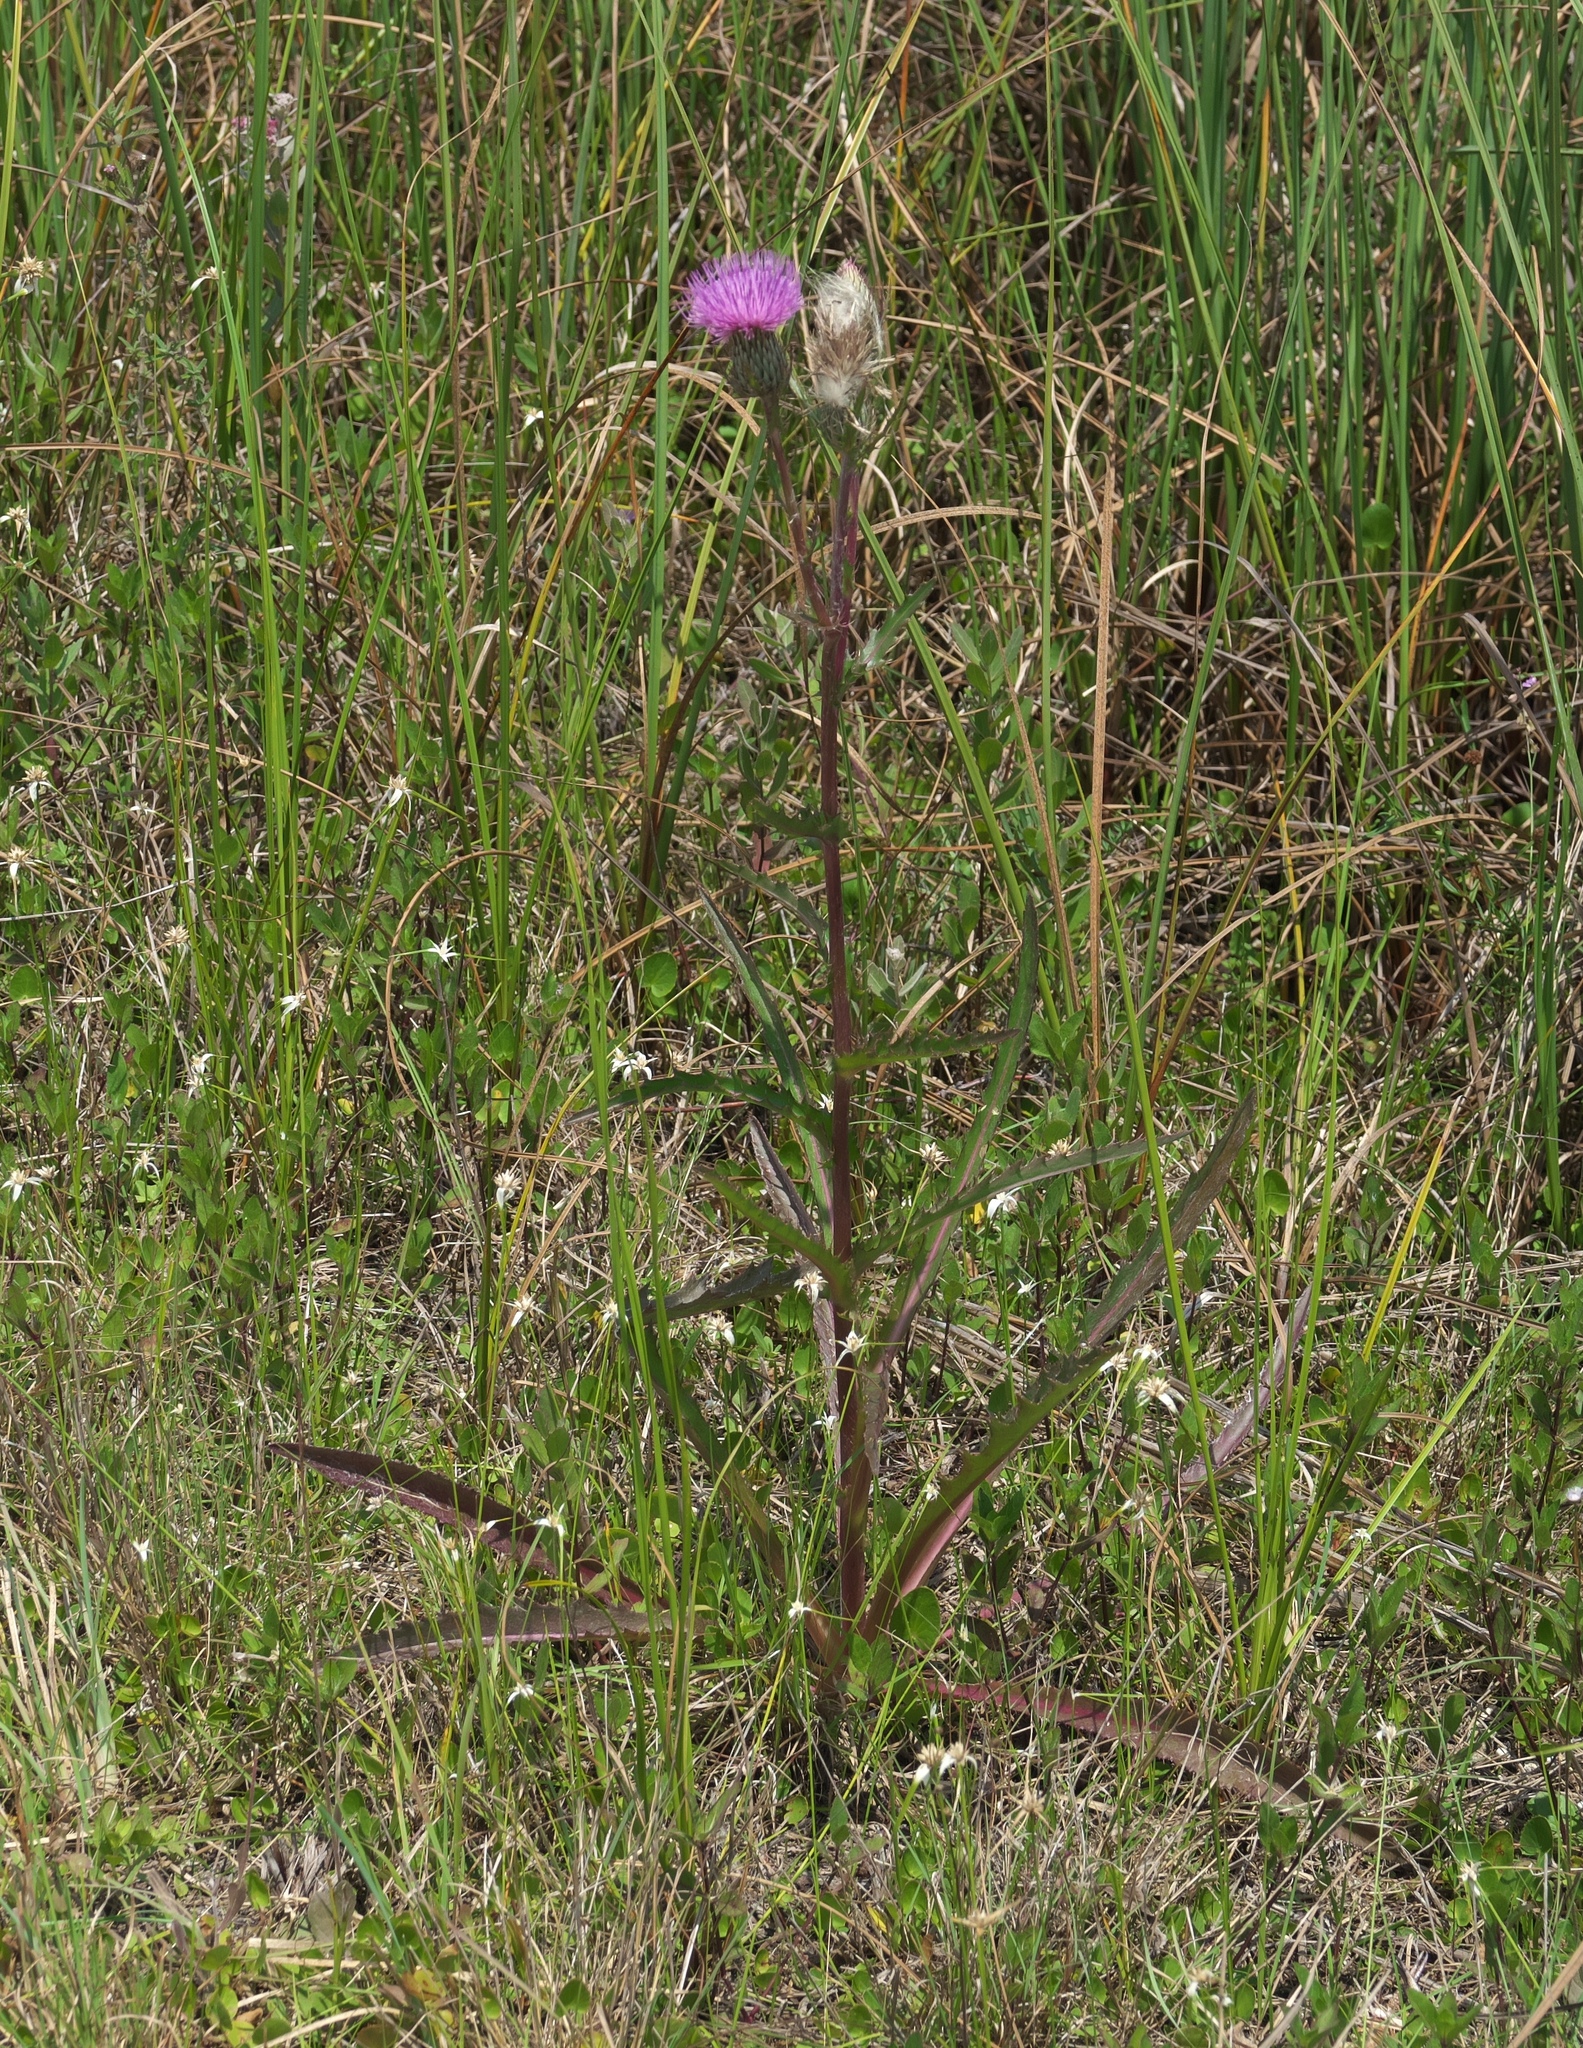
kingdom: Plantae
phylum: Tracheophyta
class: Magnoliopsida
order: Asterales
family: Asteraceae
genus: Cirsium
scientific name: Cirsium horridulum
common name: Bristly thistle
